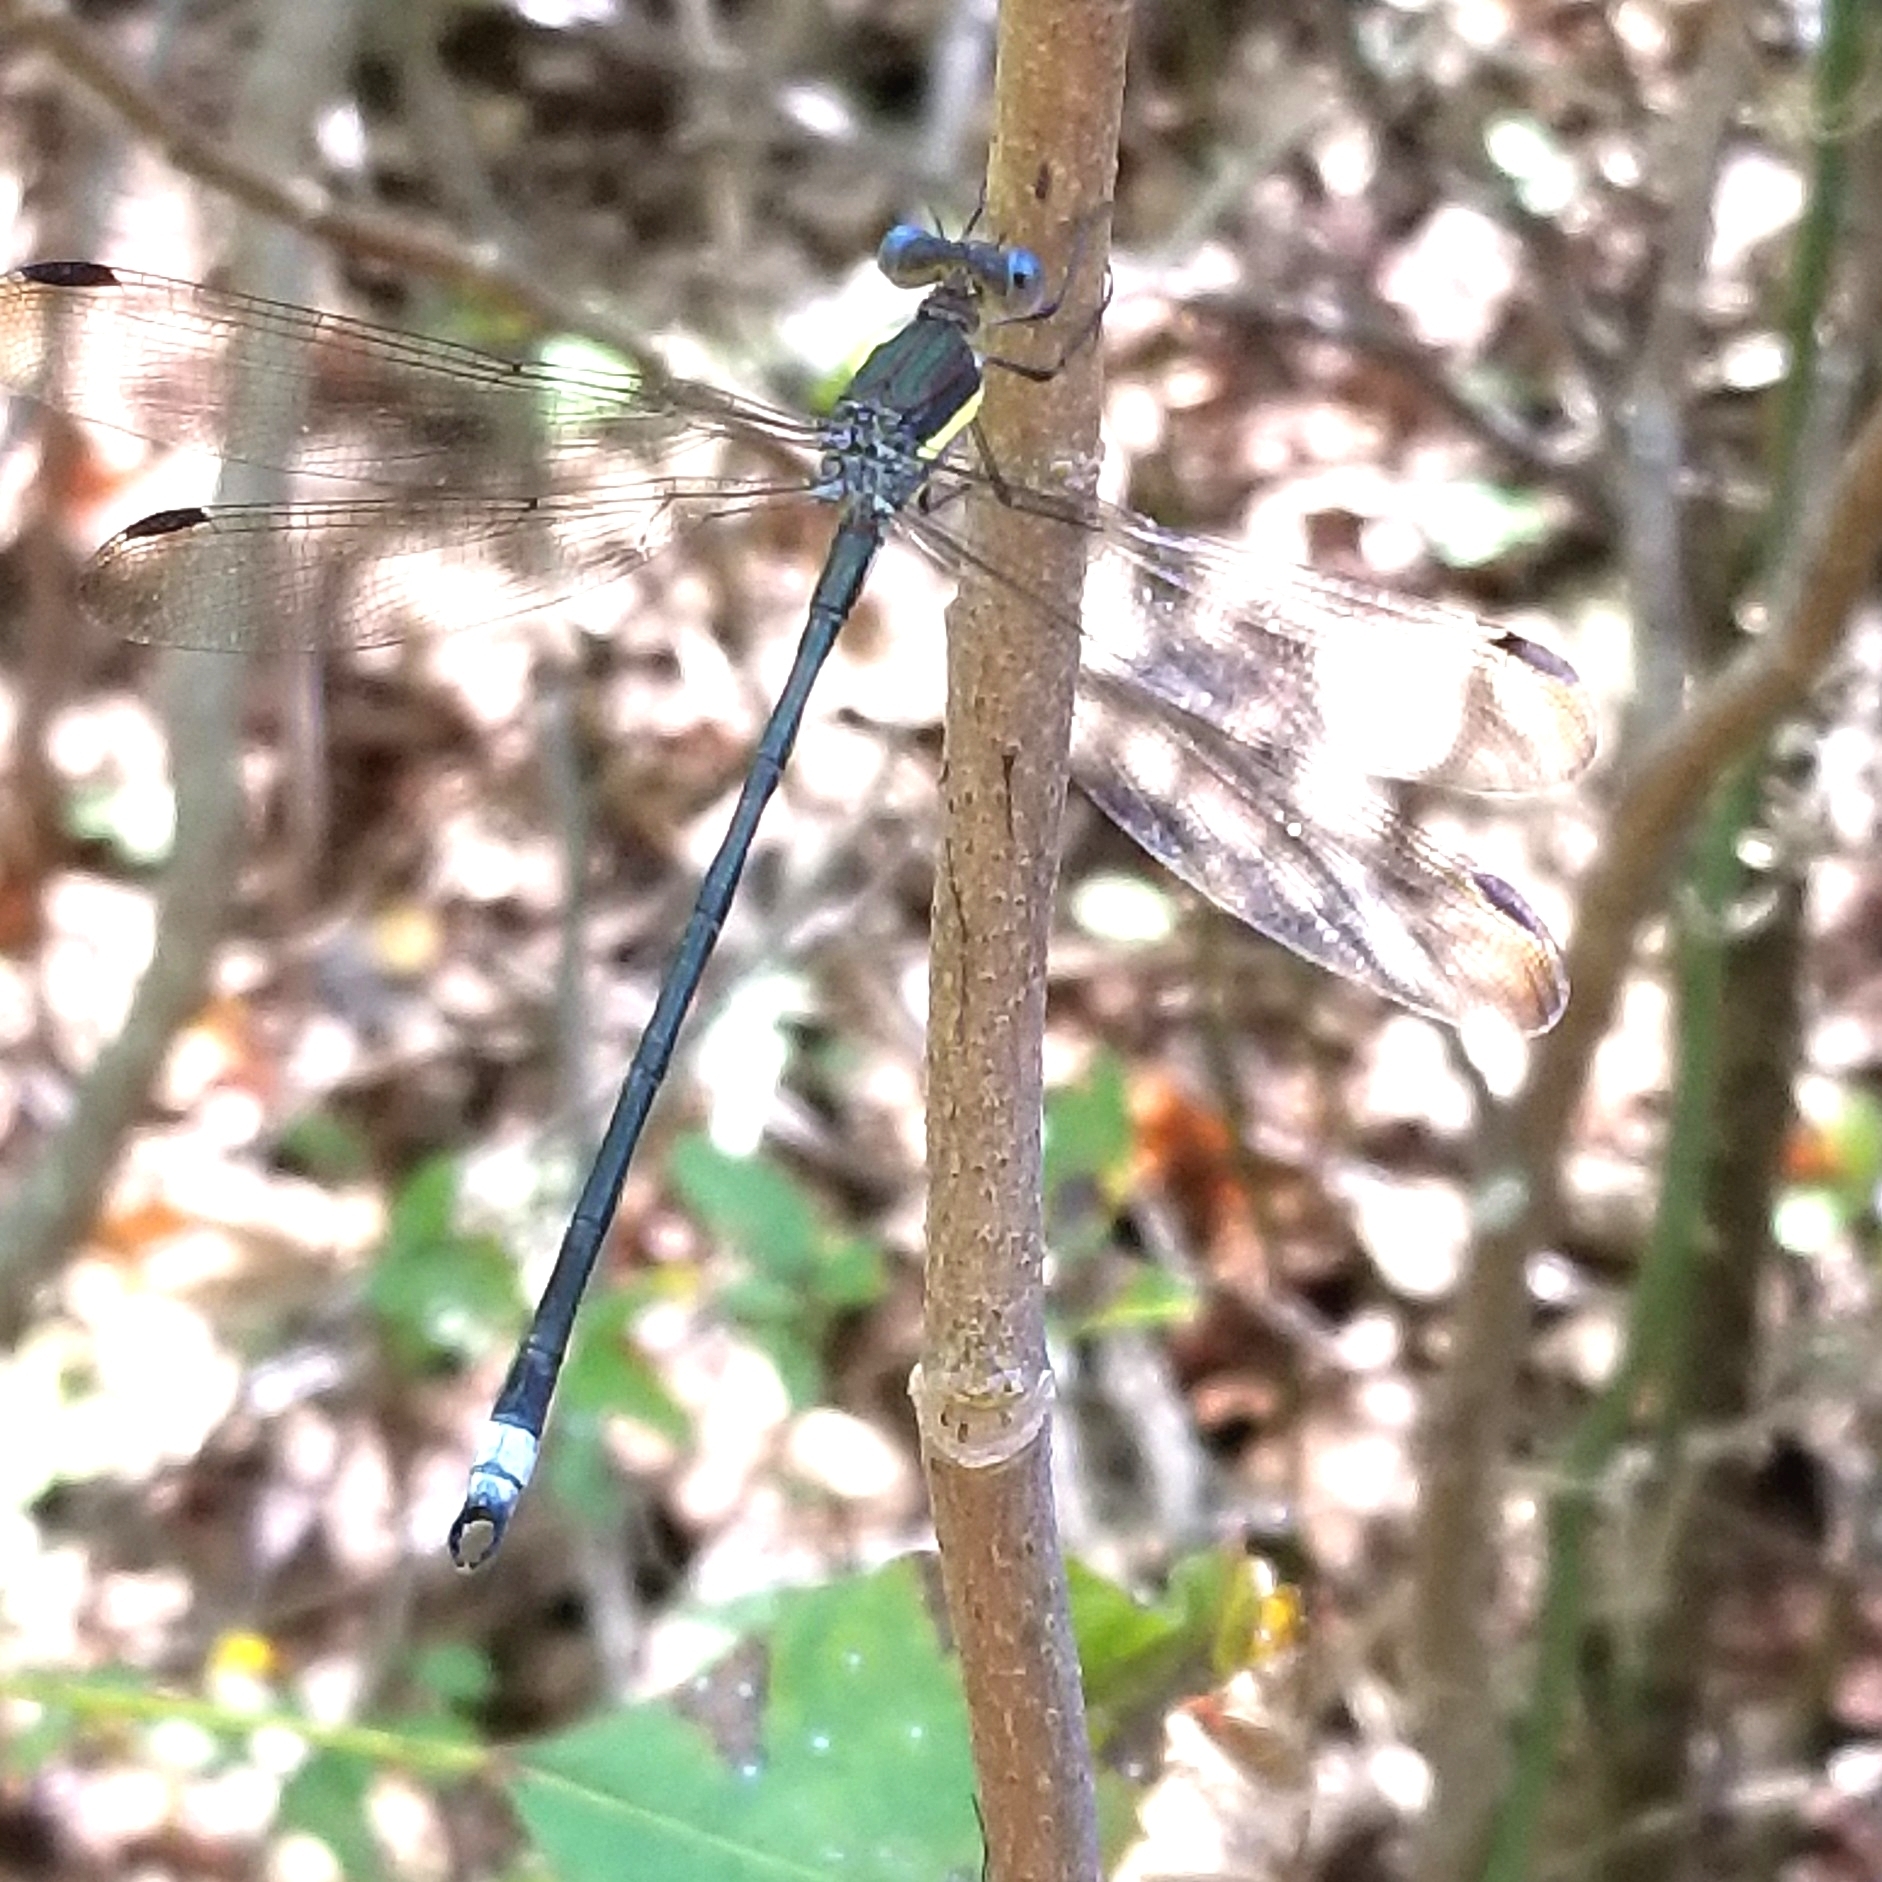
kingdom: Animalia
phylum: Arthropoda
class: Insecta
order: Odonata
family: Lestidae
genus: Archilestes
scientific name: Archilestes grandis
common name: Great spreadwing
